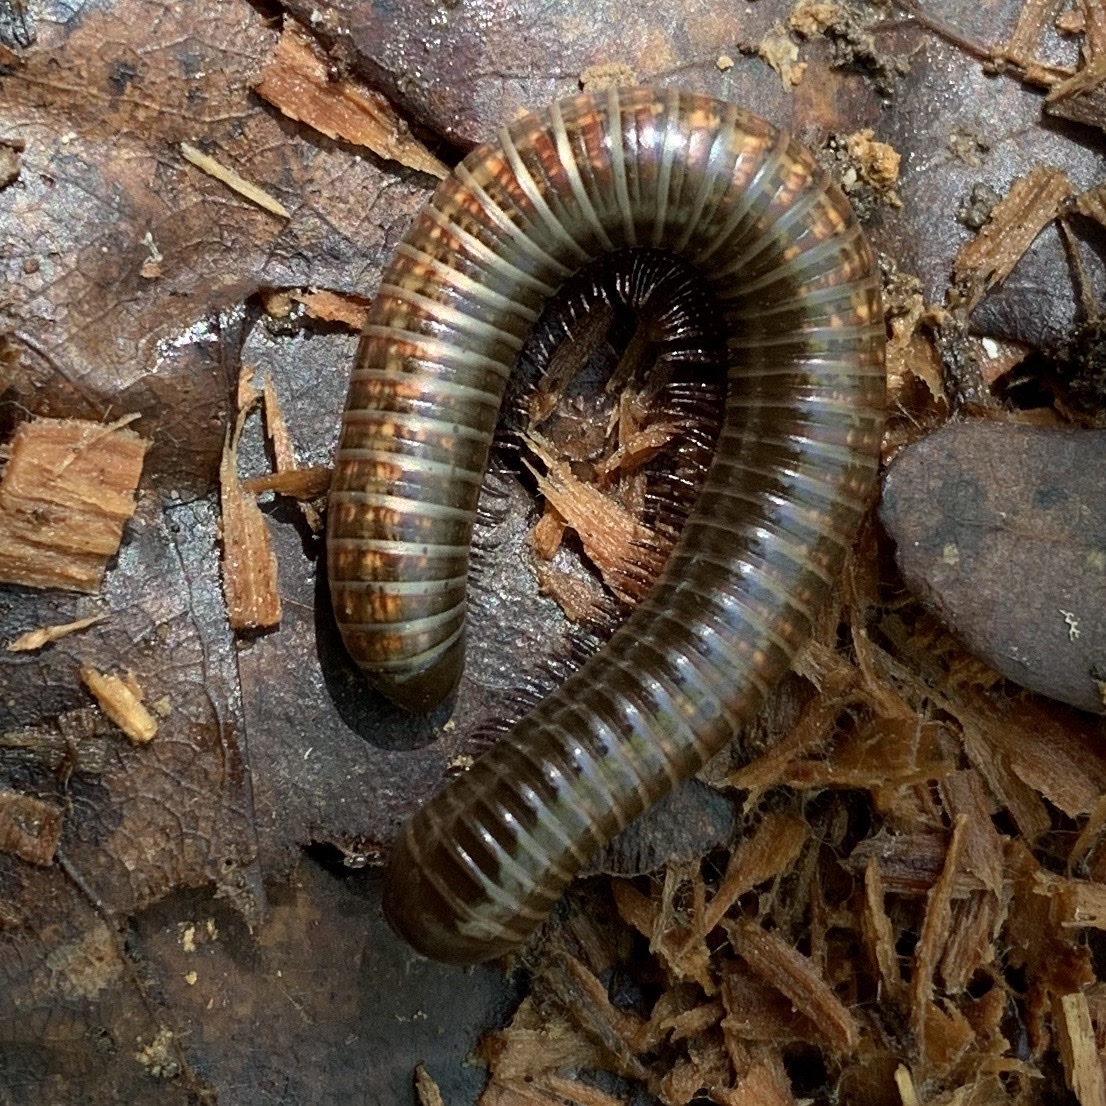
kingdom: Animalia
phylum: Arthropoda
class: Diplopoda
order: Spirostreptida
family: Choctellidae
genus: Choctella
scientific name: Choctella cumminsi
